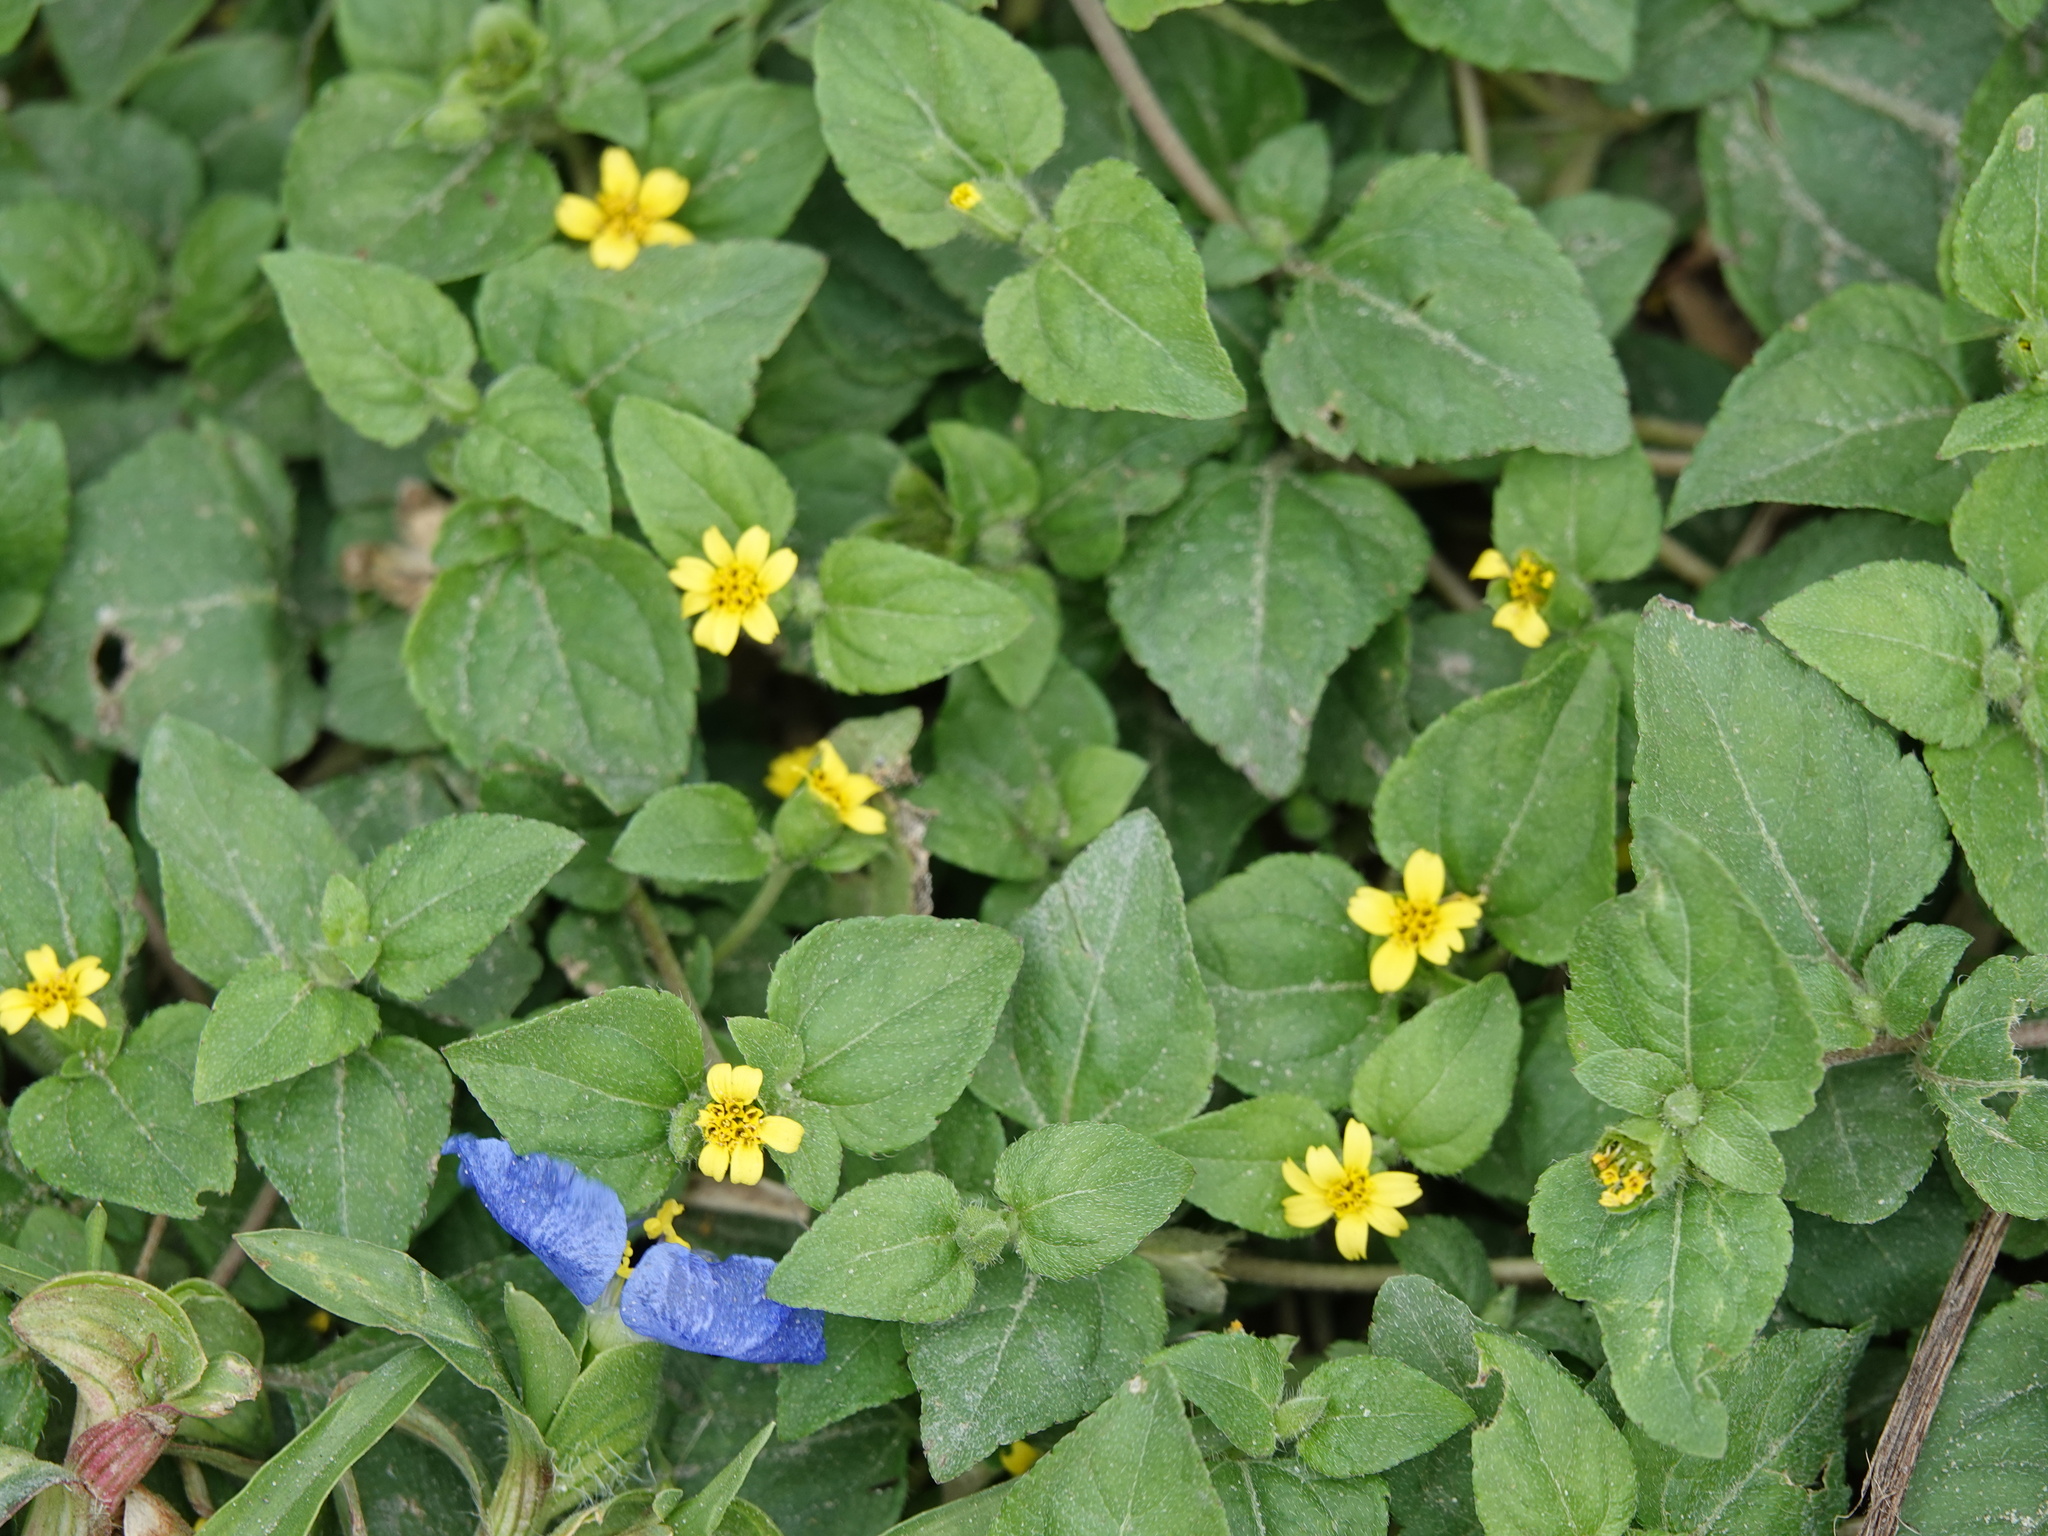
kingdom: Plantae
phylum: Tracheophyta
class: Magnoliopsida
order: Asterales
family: Asteraceae
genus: Calyptocarpus
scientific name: Calyptocarpus vialis
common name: Straggler daisy
